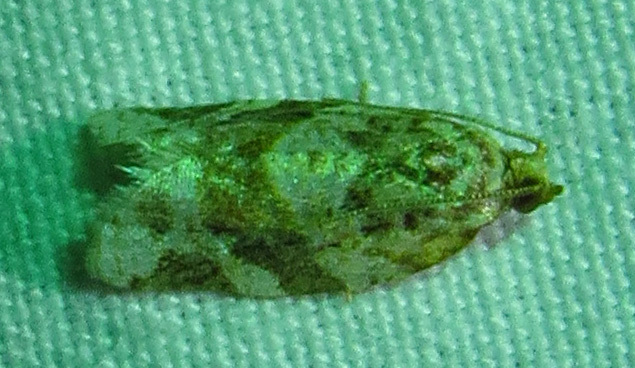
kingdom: Animalia
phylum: Arthropoda
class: Insecta
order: Lepidoptera
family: Tortricidae
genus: Argyrotaenia
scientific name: Argyrotaenia velutinana
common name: Red-banded leafroller moth
